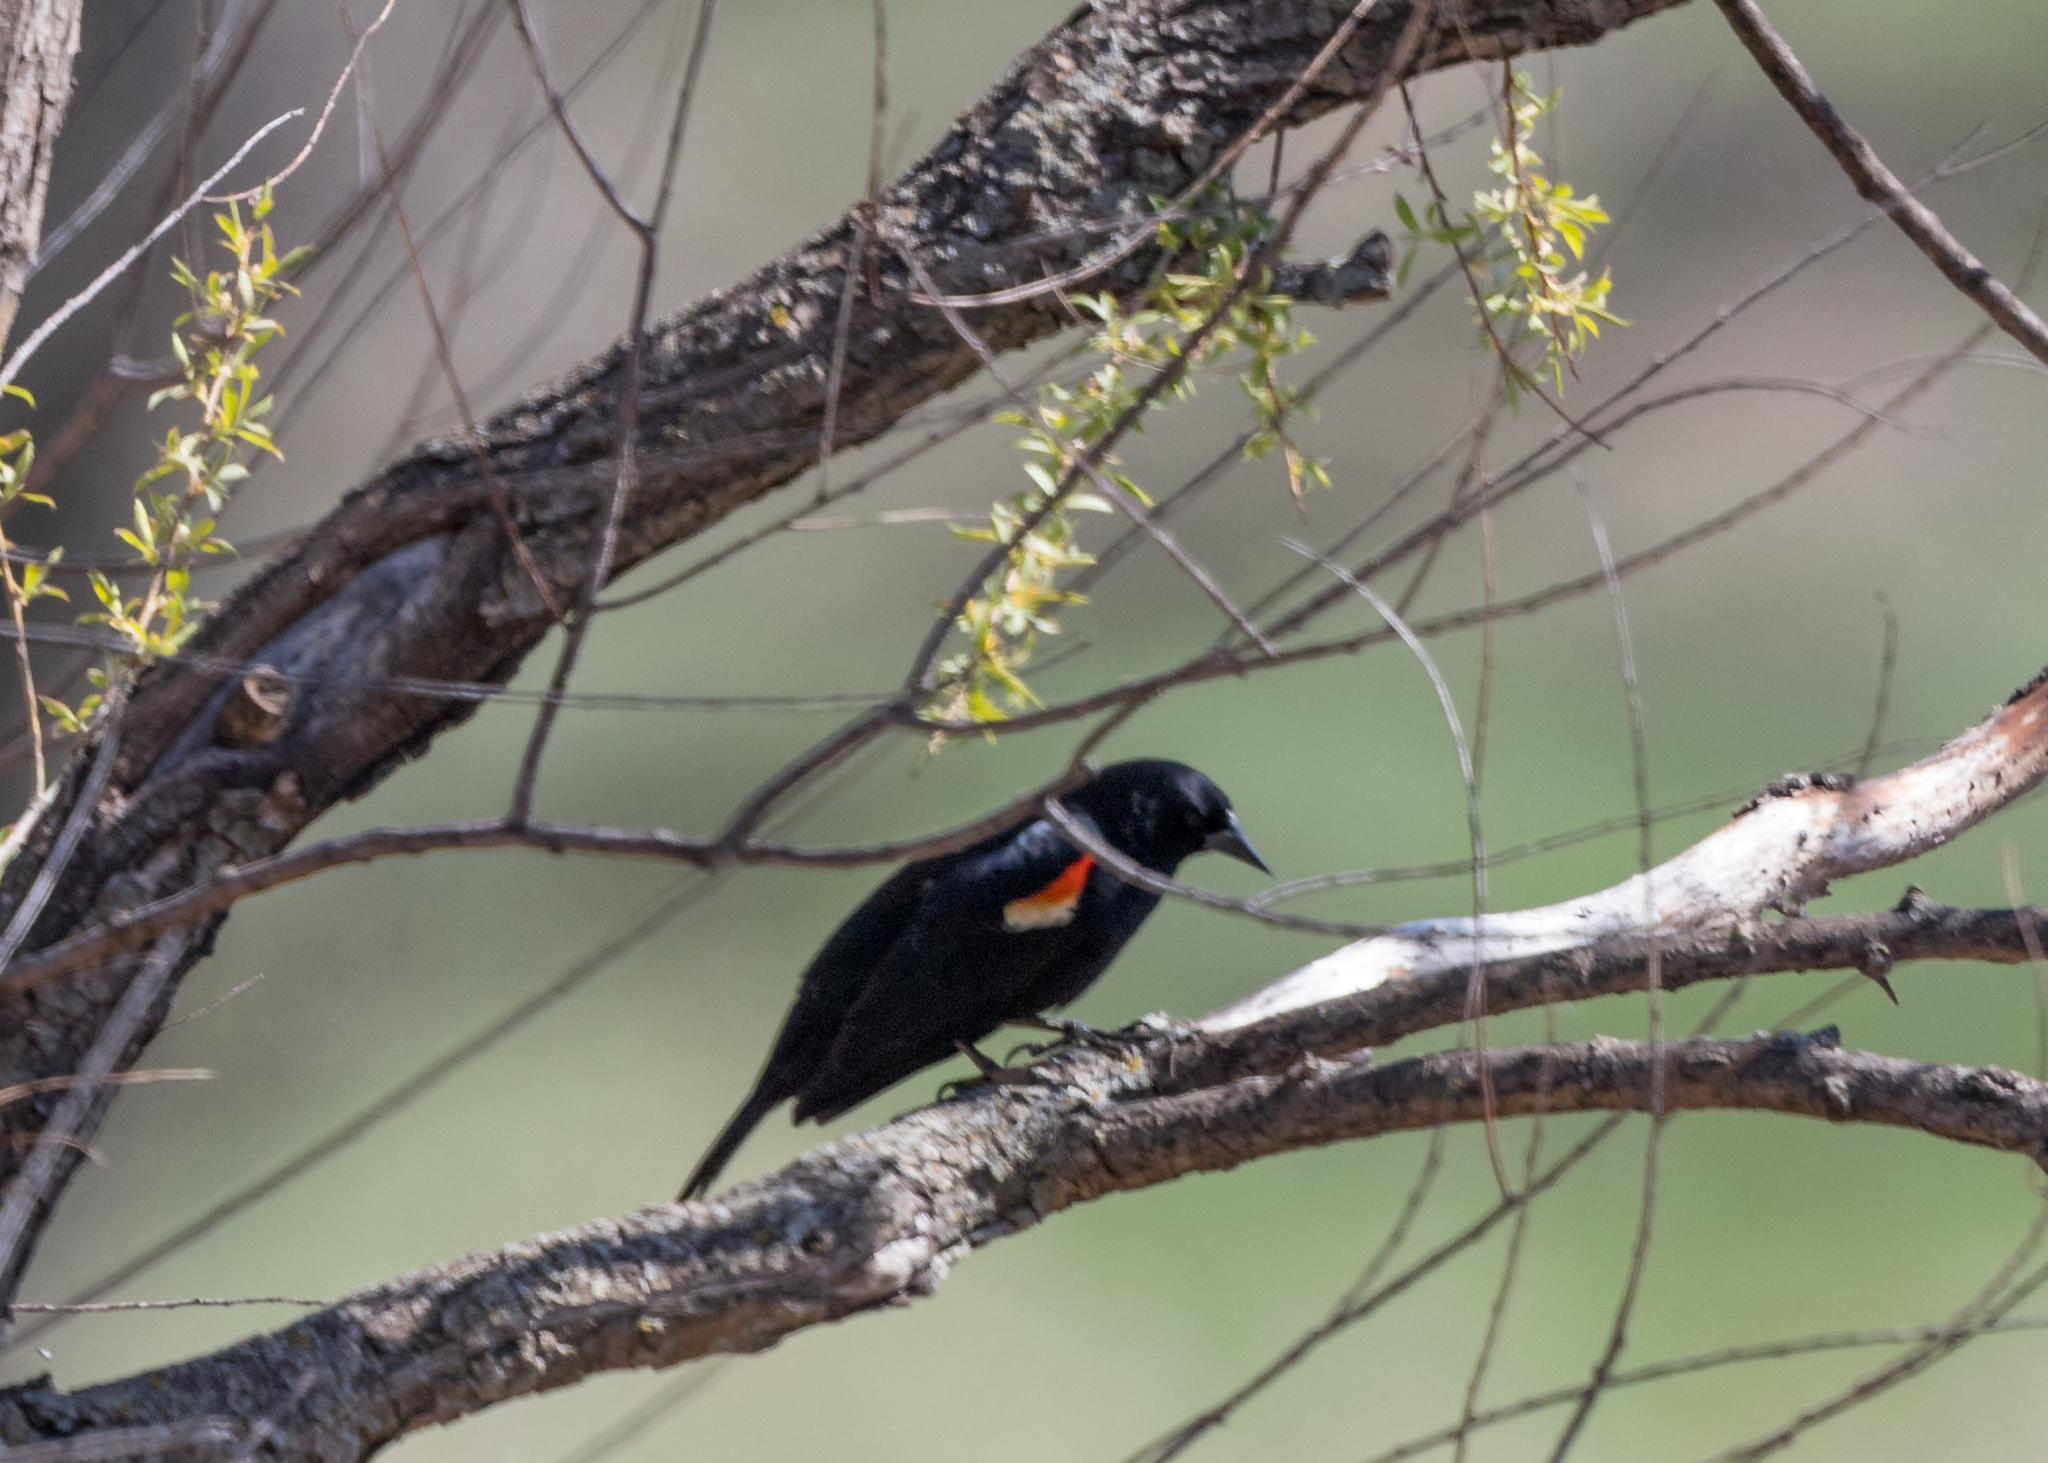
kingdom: Animalia
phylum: Chordata
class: Aves
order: Passeriformes
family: Icteridae
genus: Agelaius
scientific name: Agelaius phoeniceus
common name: Red-winged blackbird
